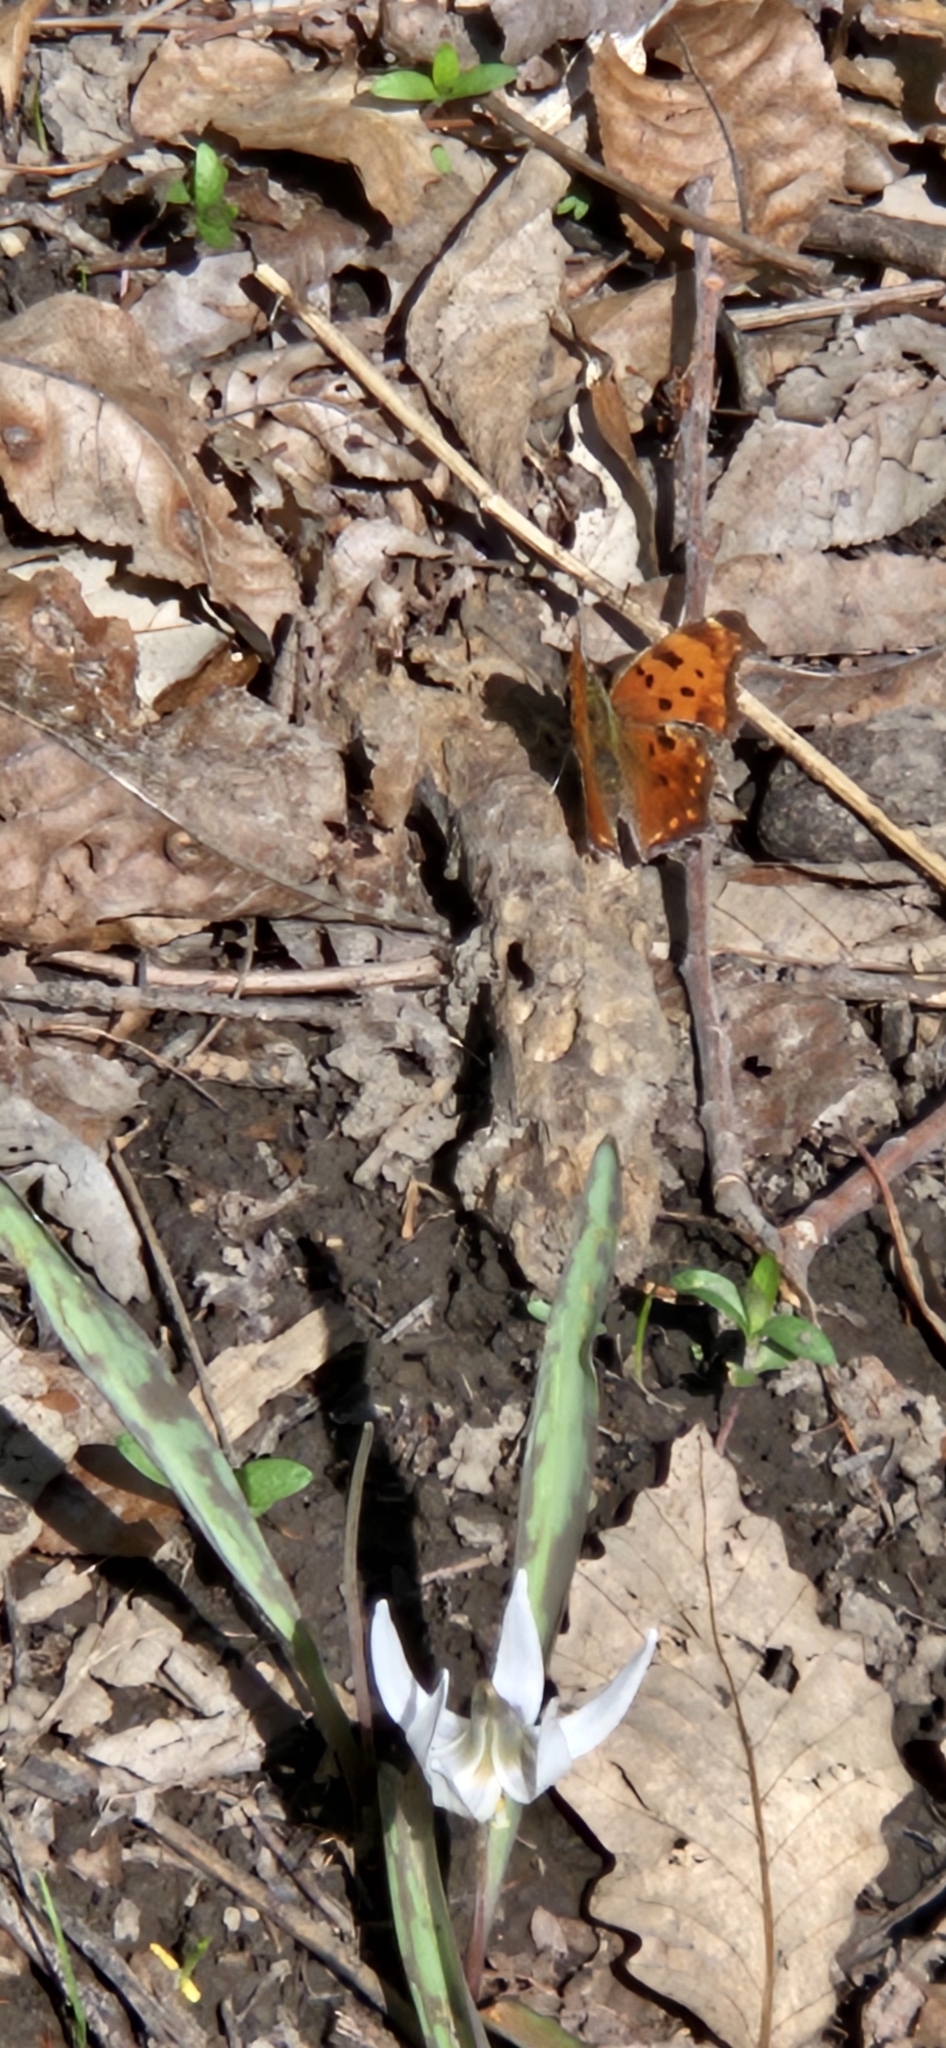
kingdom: Animalia
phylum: Arthropoda
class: Insecta
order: Lepidoptera
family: Nymphalidae
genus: Polygonia
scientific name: Polygonia comma
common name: Eastern comma
